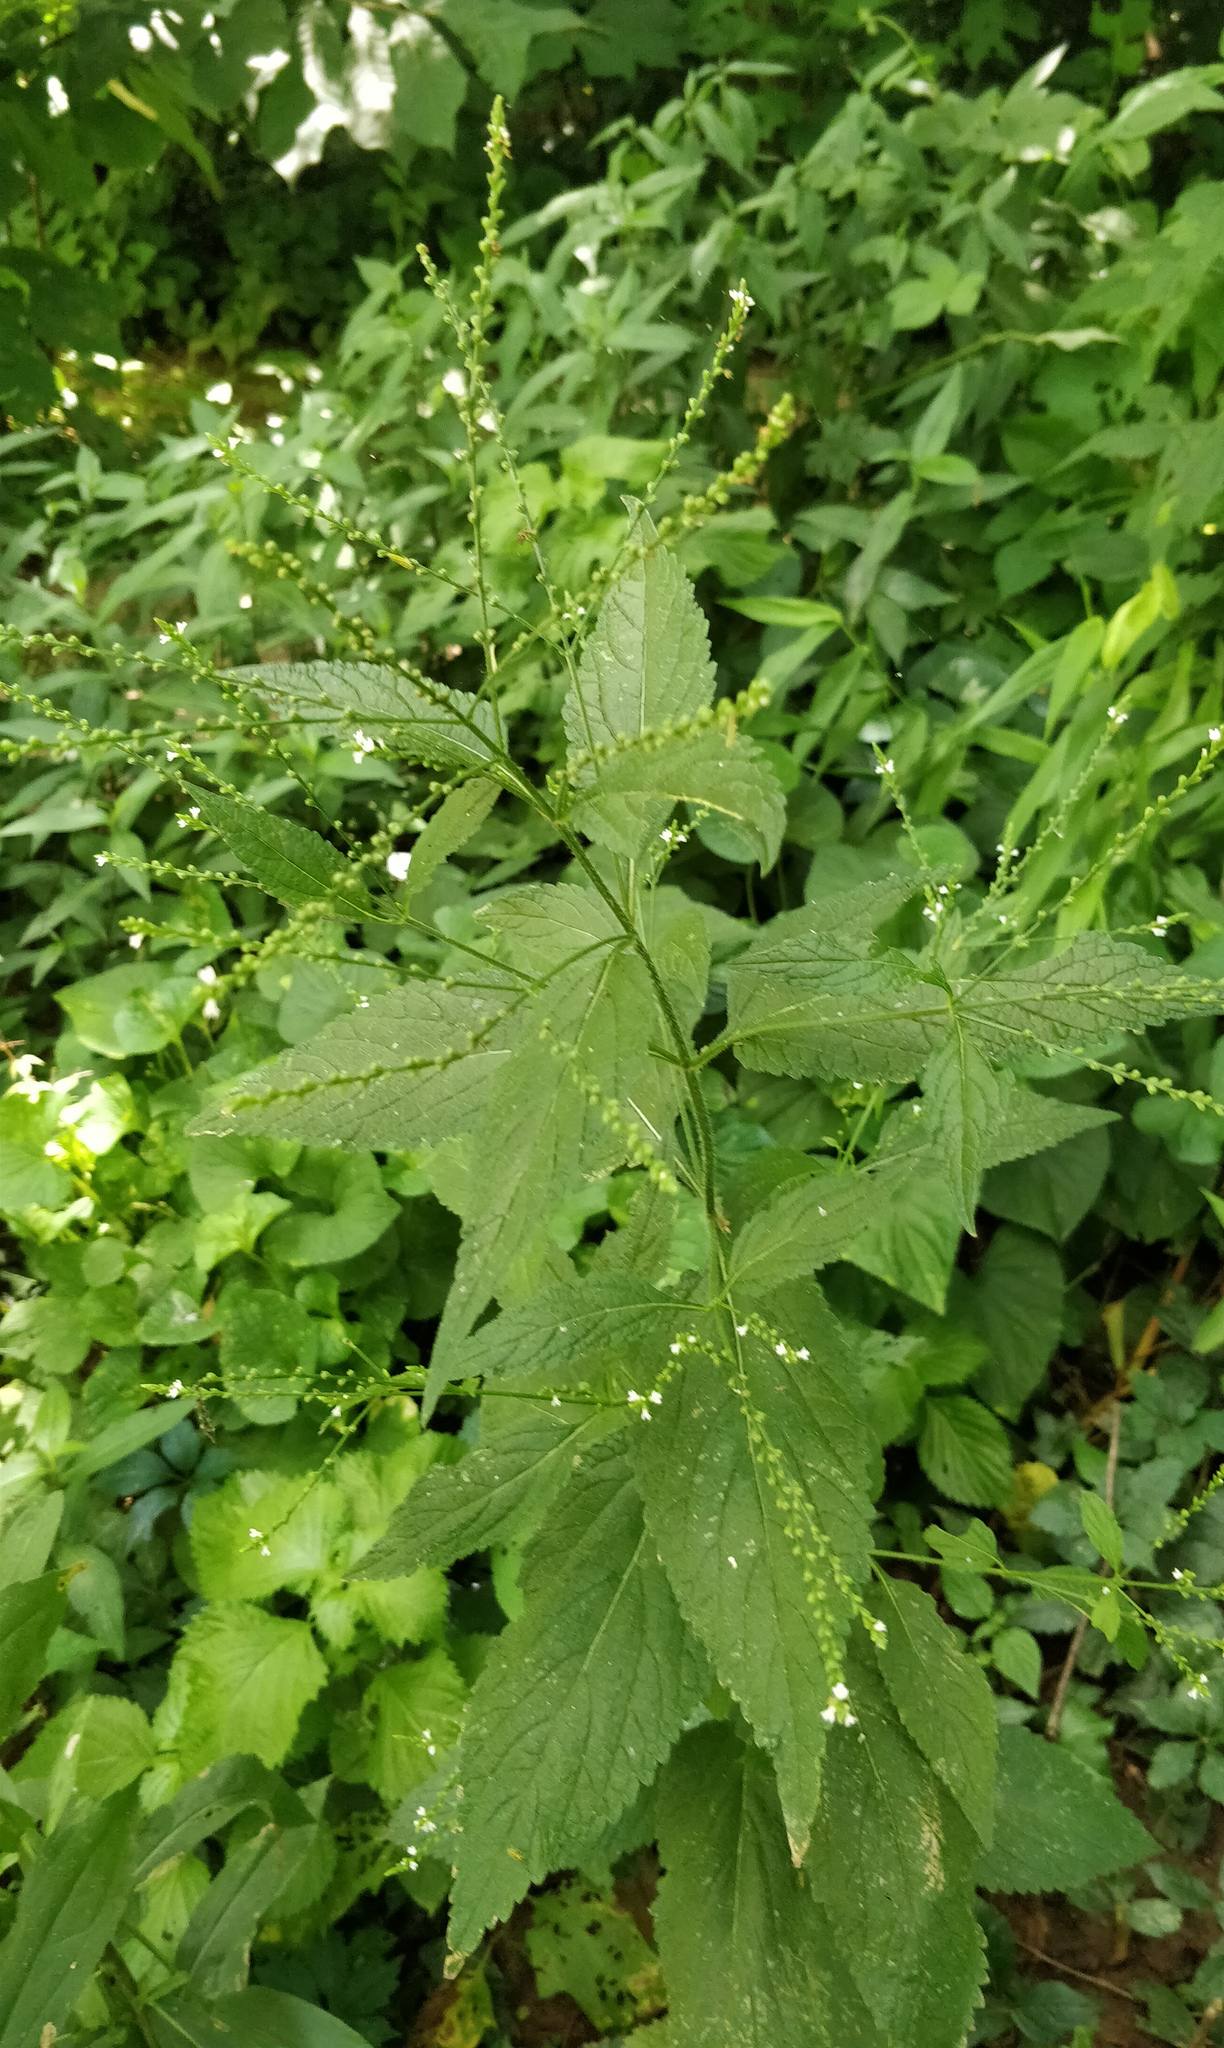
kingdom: Plantae
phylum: Tracheophyta
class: Magnoliopsida
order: Lamiales
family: Verbenaceae
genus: Verbena
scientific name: Verbena urticifolia
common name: Nettle-leaved vervain
